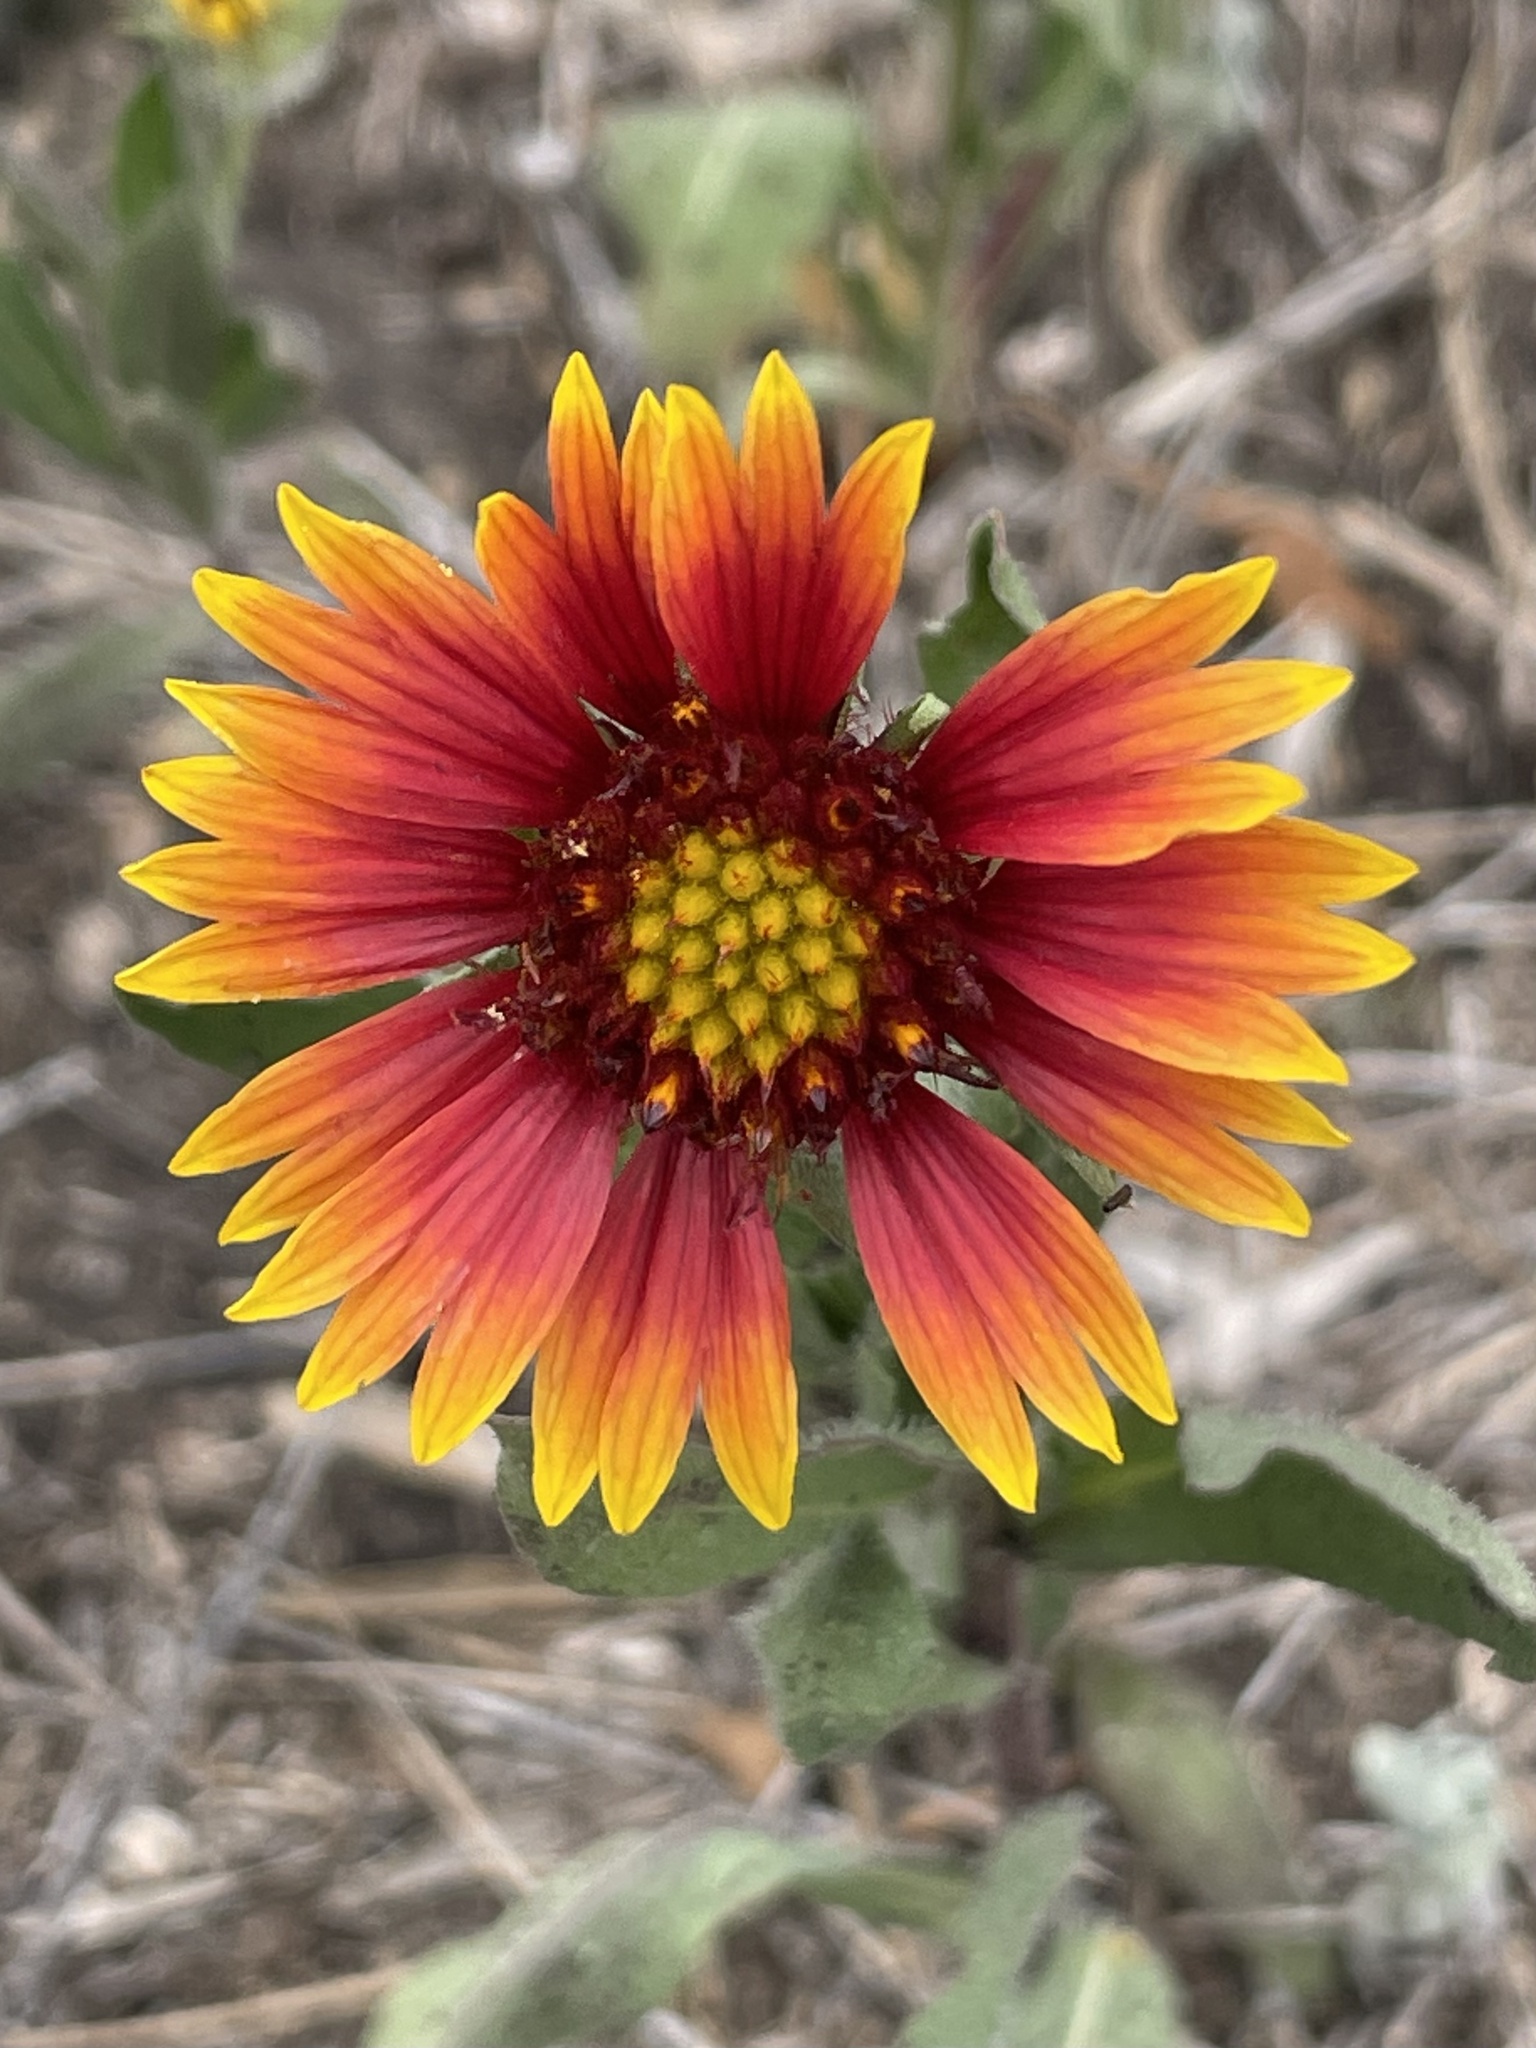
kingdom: Plantae
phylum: Tracheophyta
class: Magnoliopsida
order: Asterales
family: Asteraceae
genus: Gaillardia
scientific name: Gaillardia pulchella
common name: Firewheel
